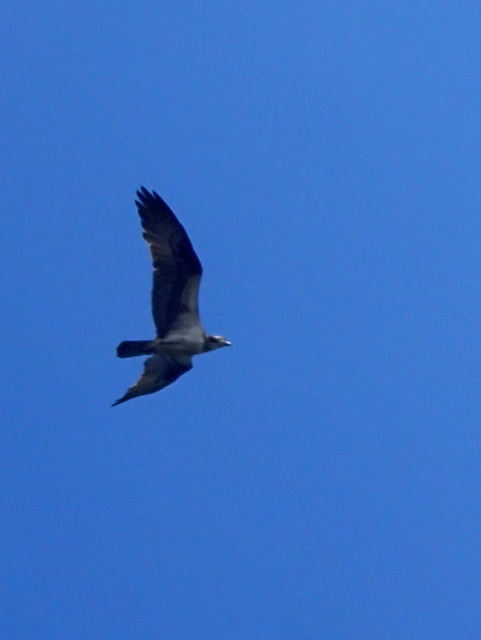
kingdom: Animalia
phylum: Chordata
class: Aves
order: Accipitriformes
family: Pandionidae
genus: Pandion
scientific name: Pandion haliaetus
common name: Osprey
